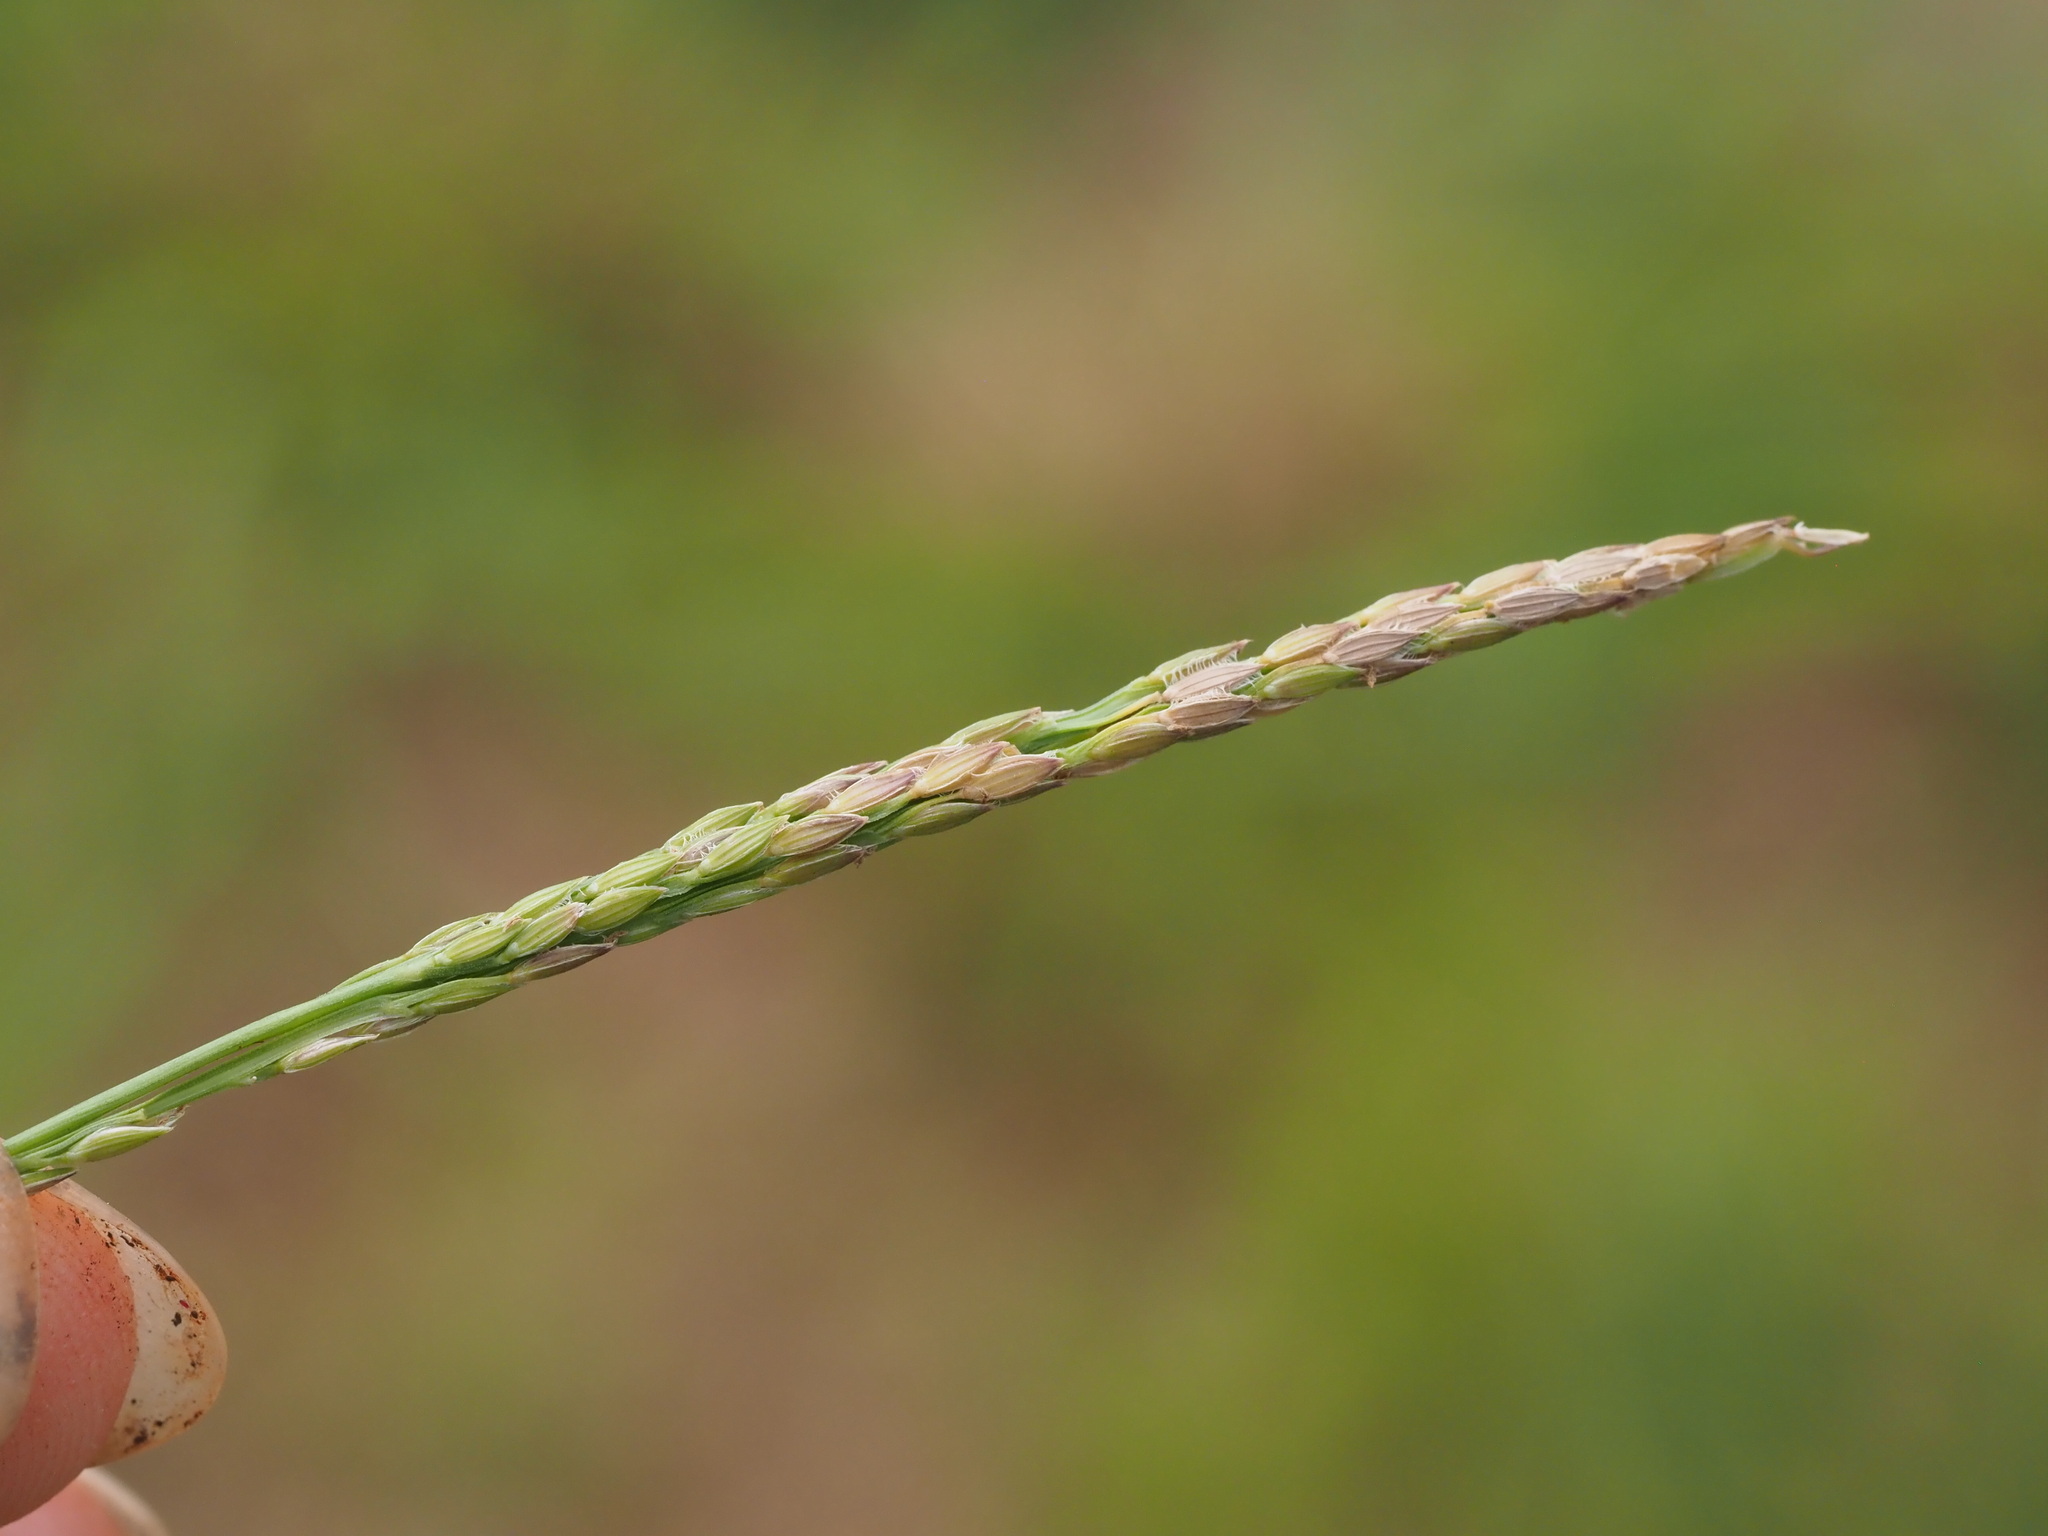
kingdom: Plantae
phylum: Tracheophyta
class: Liliopsida
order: Poales
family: Poaceae
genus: Digitaria
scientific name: Digitaria ciliaris
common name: Tropical finger-grass
